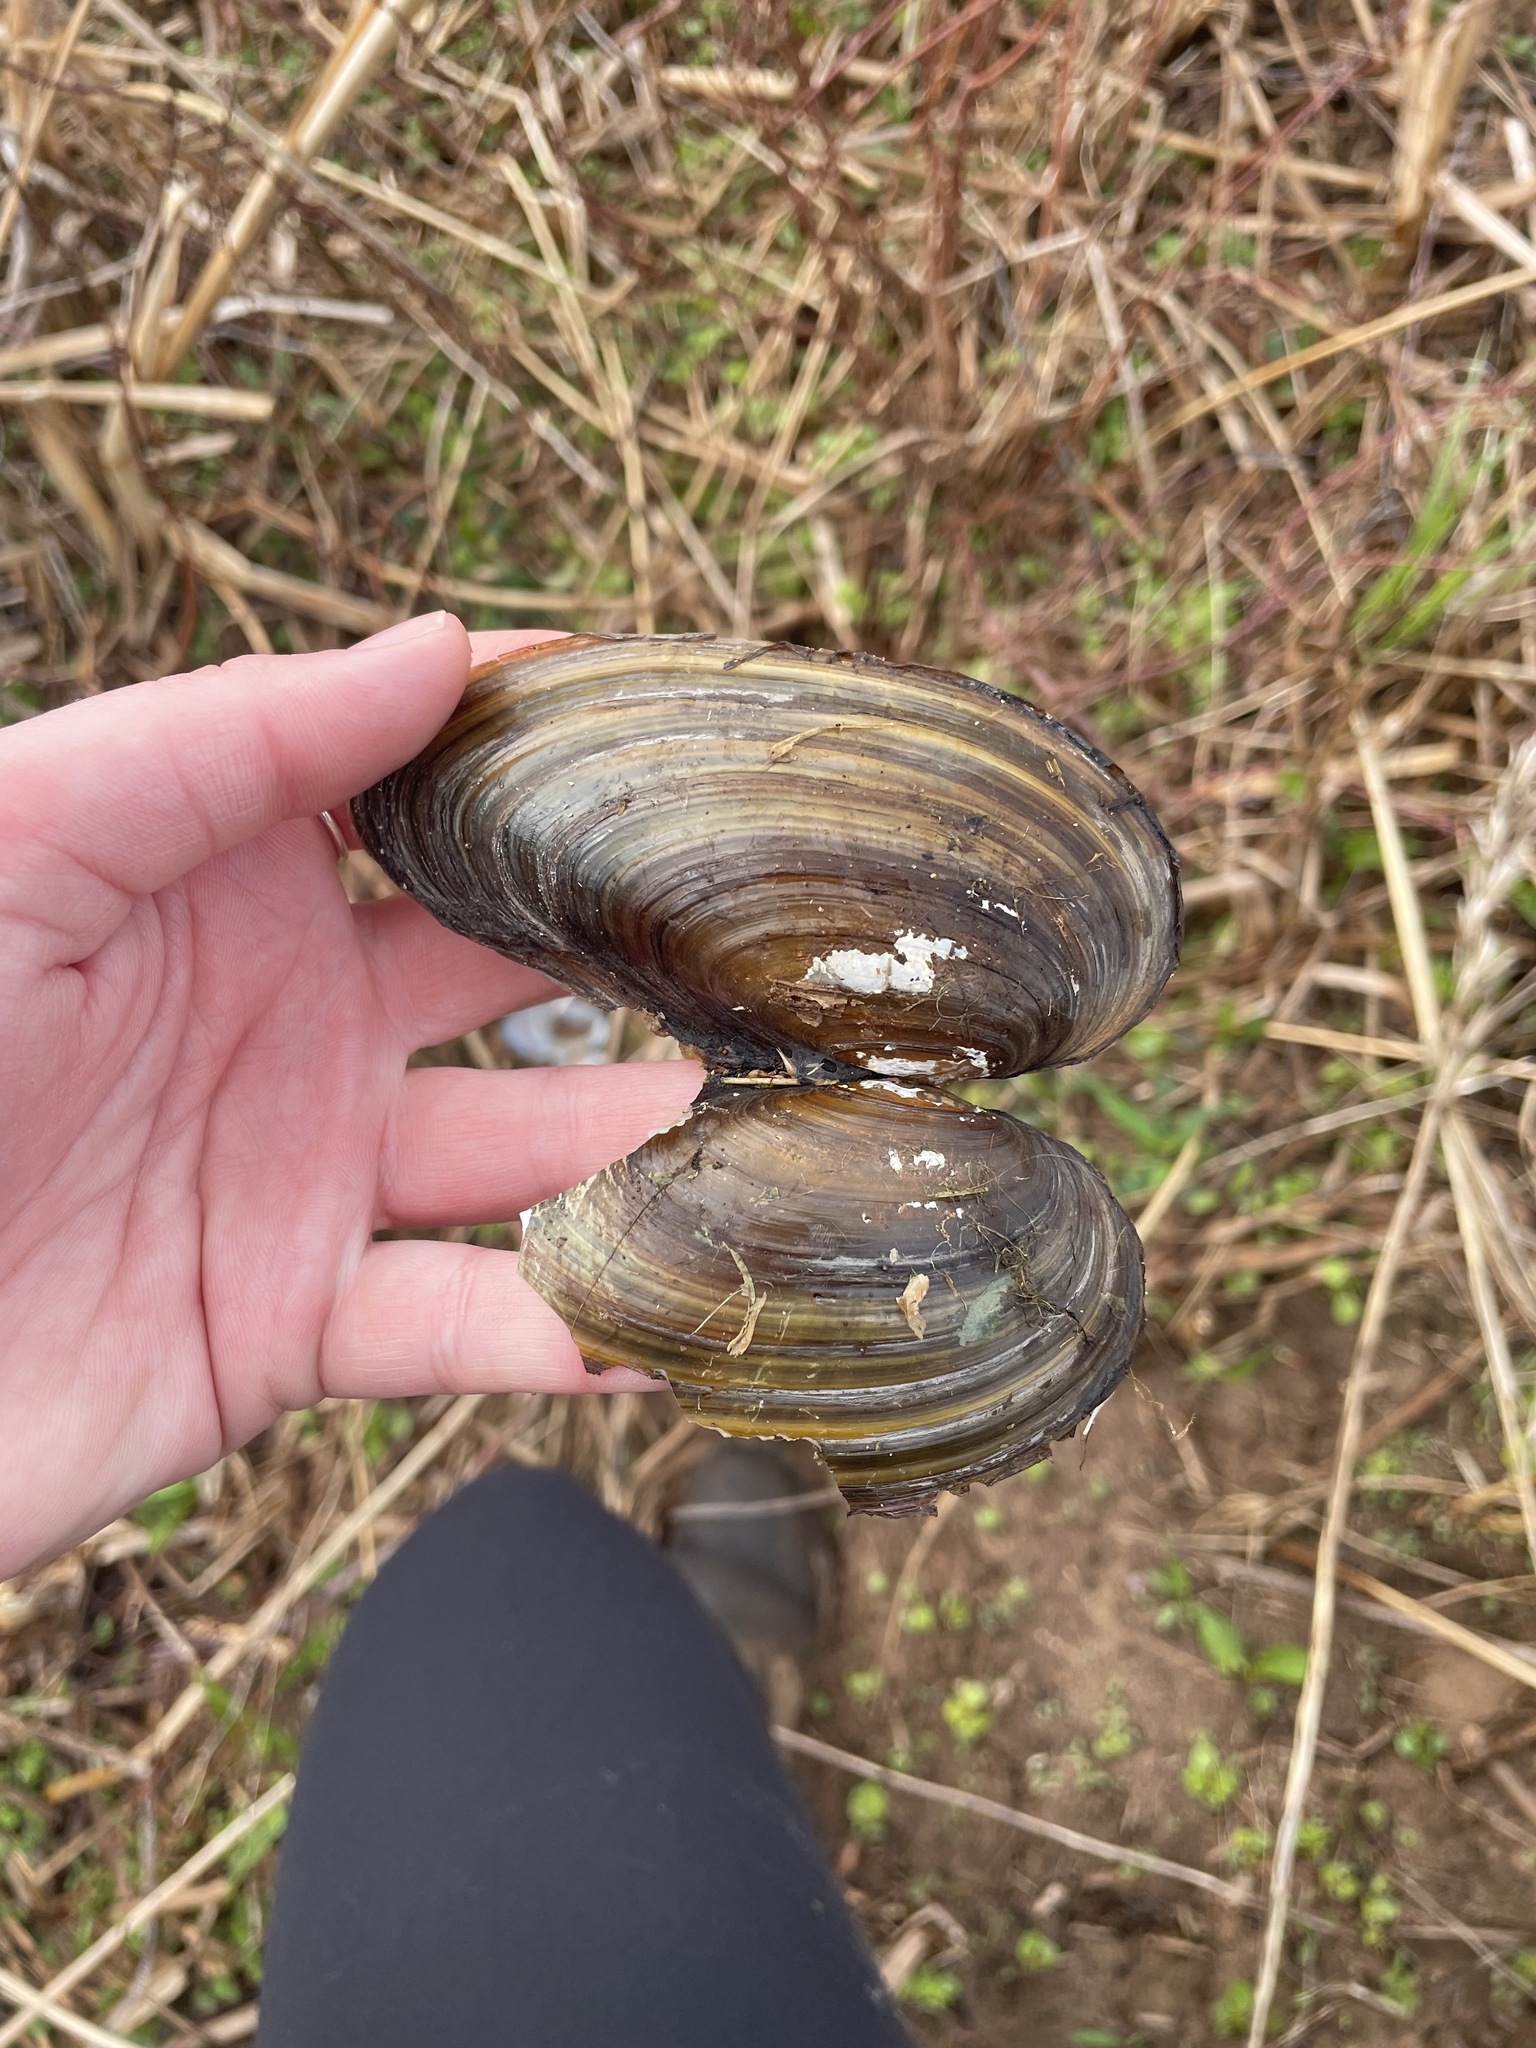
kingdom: Animalia
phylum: Mollusca
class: Bivalvia
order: Unionida
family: Unionidae
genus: Pyganodon
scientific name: Pyganodon cataracta
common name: Eastern floater
